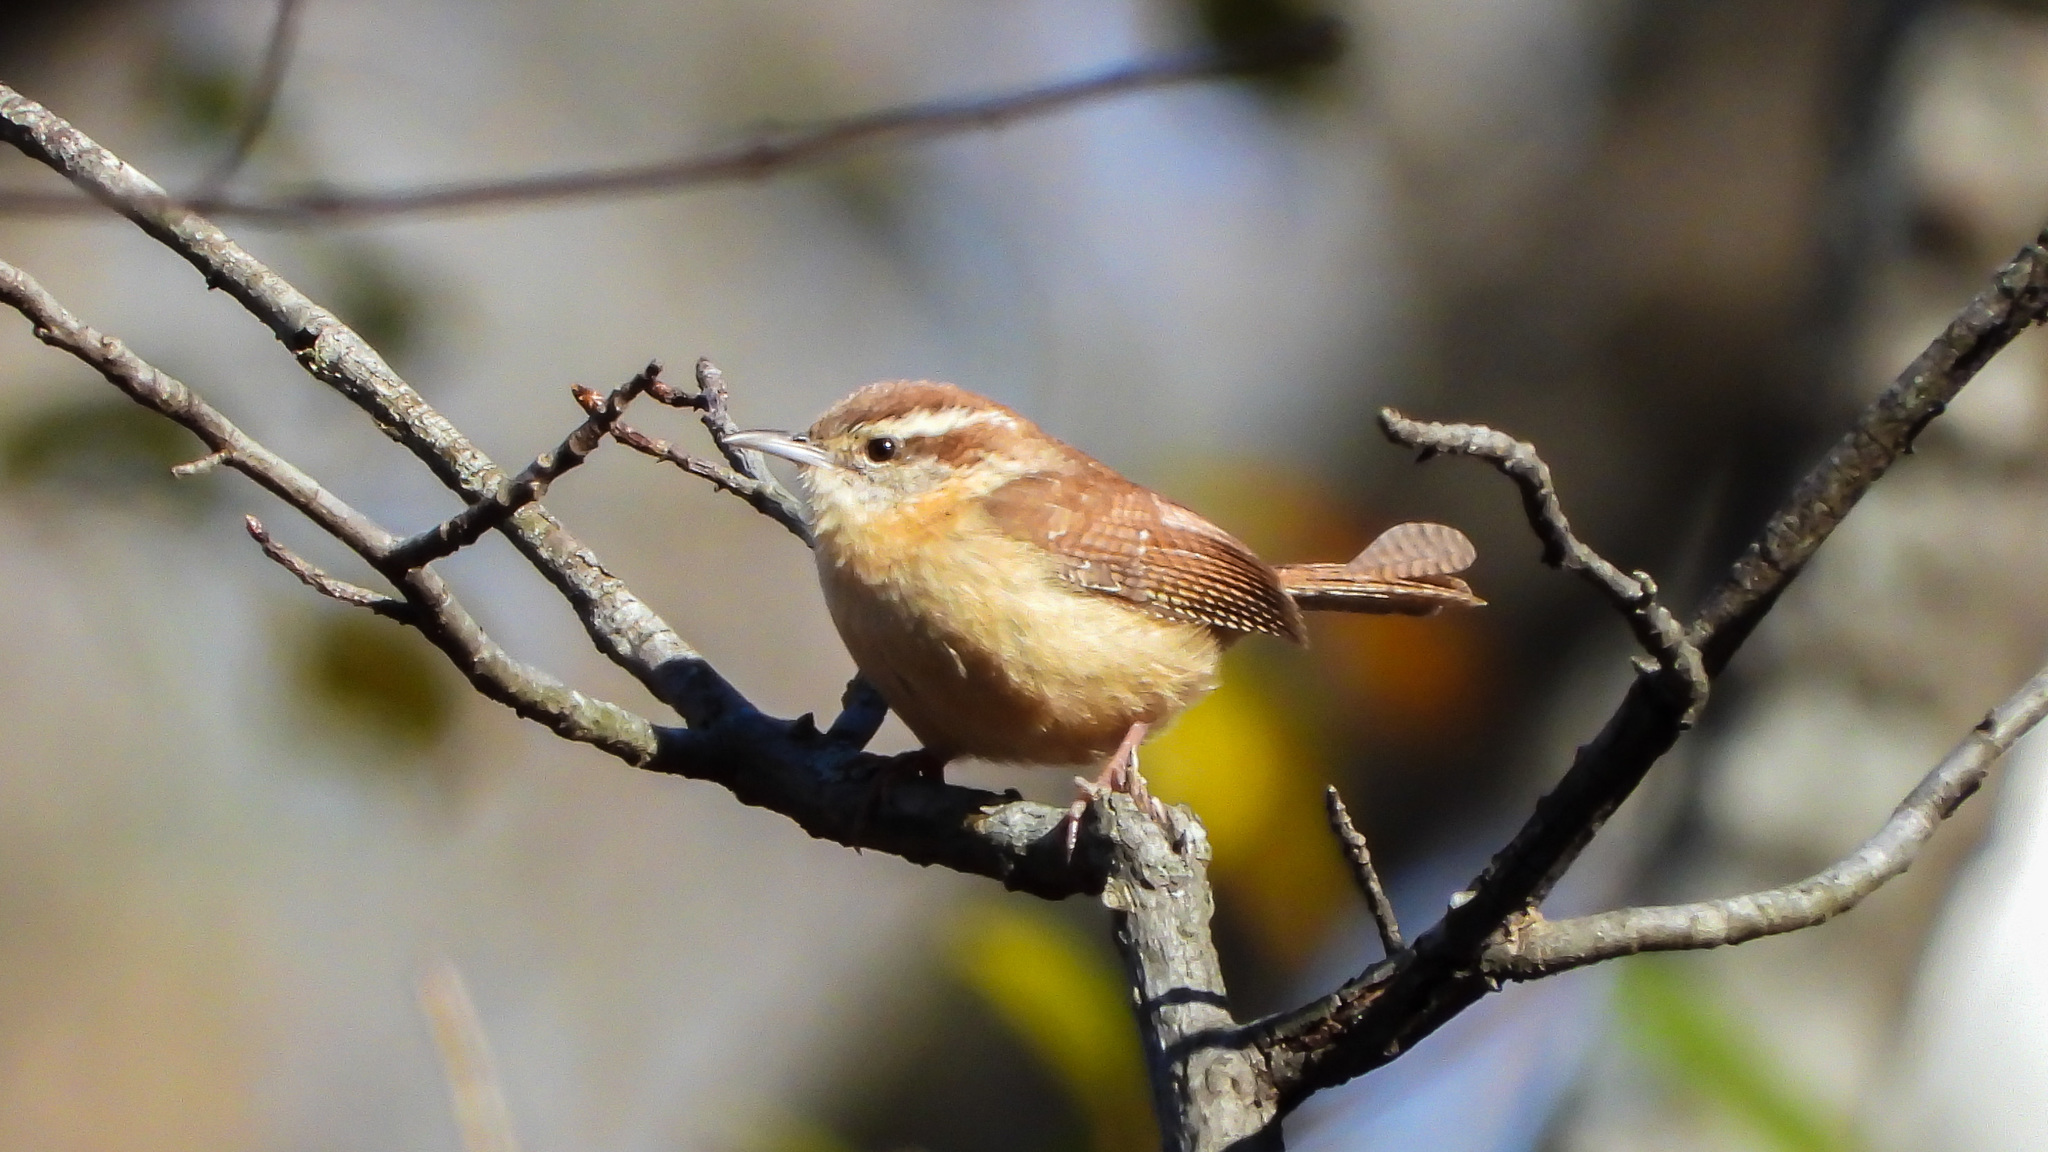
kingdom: Animalia
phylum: Chordata
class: Aves
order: Passeriformes
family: Troglodytidae
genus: Thryothorus
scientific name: Thryothorus ludovicianus
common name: Carolina wren
